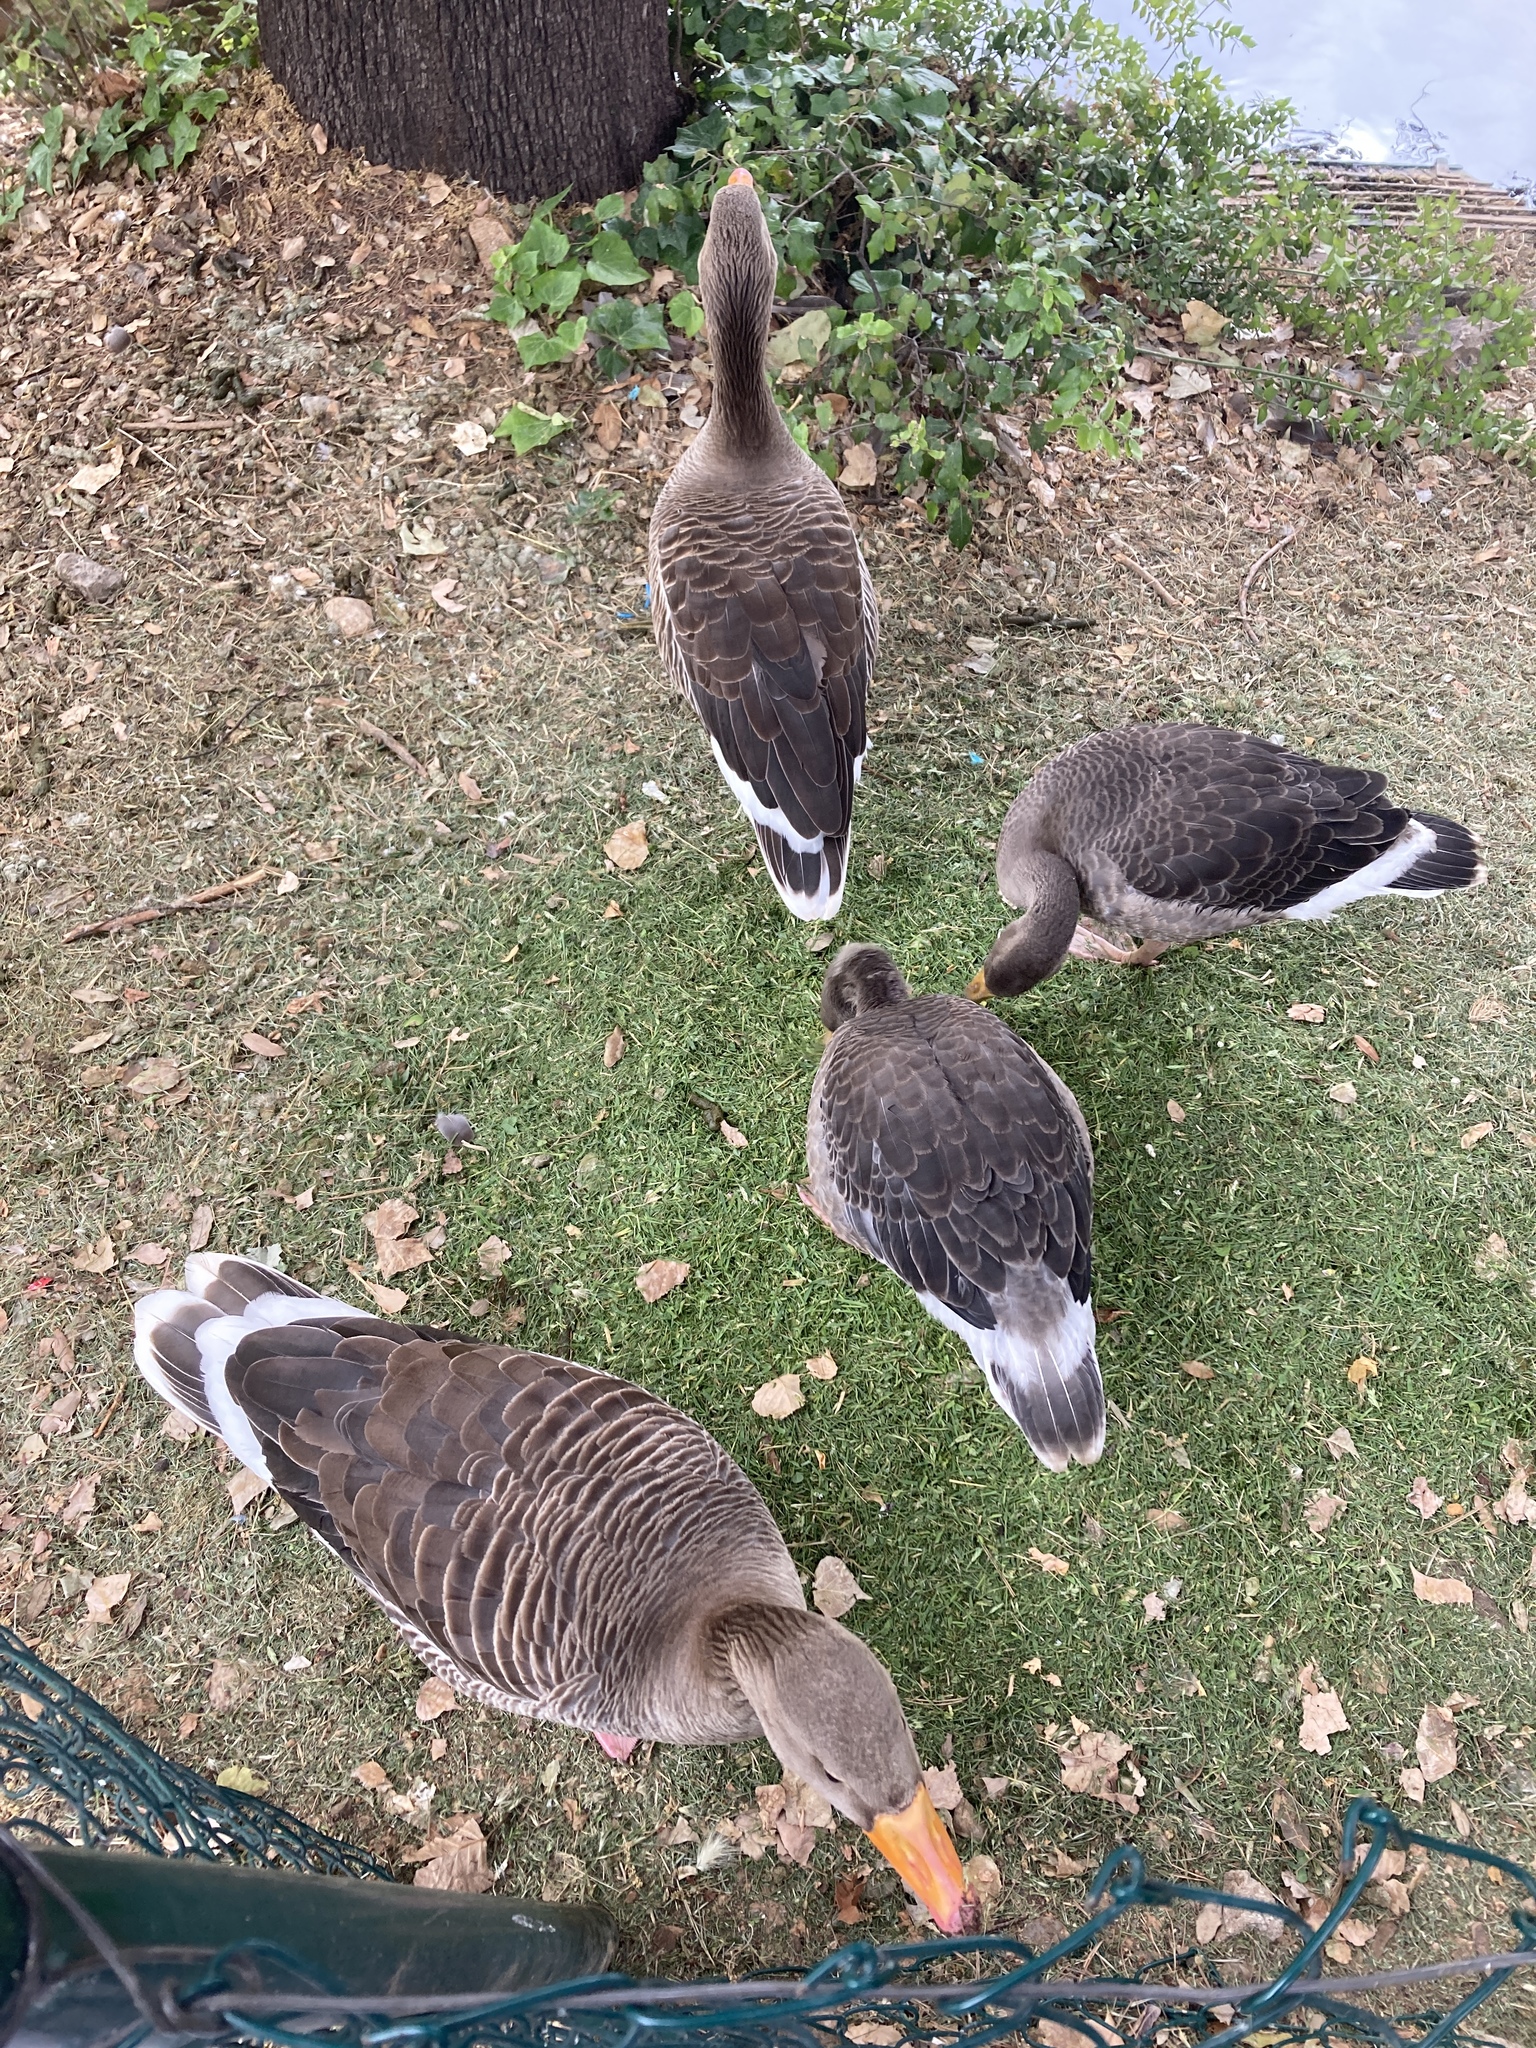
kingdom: Animalia
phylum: Chordata
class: Aves
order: Anseriformes
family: Anatidae
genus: Anser
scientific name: Anser anser
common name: Greylag goose
